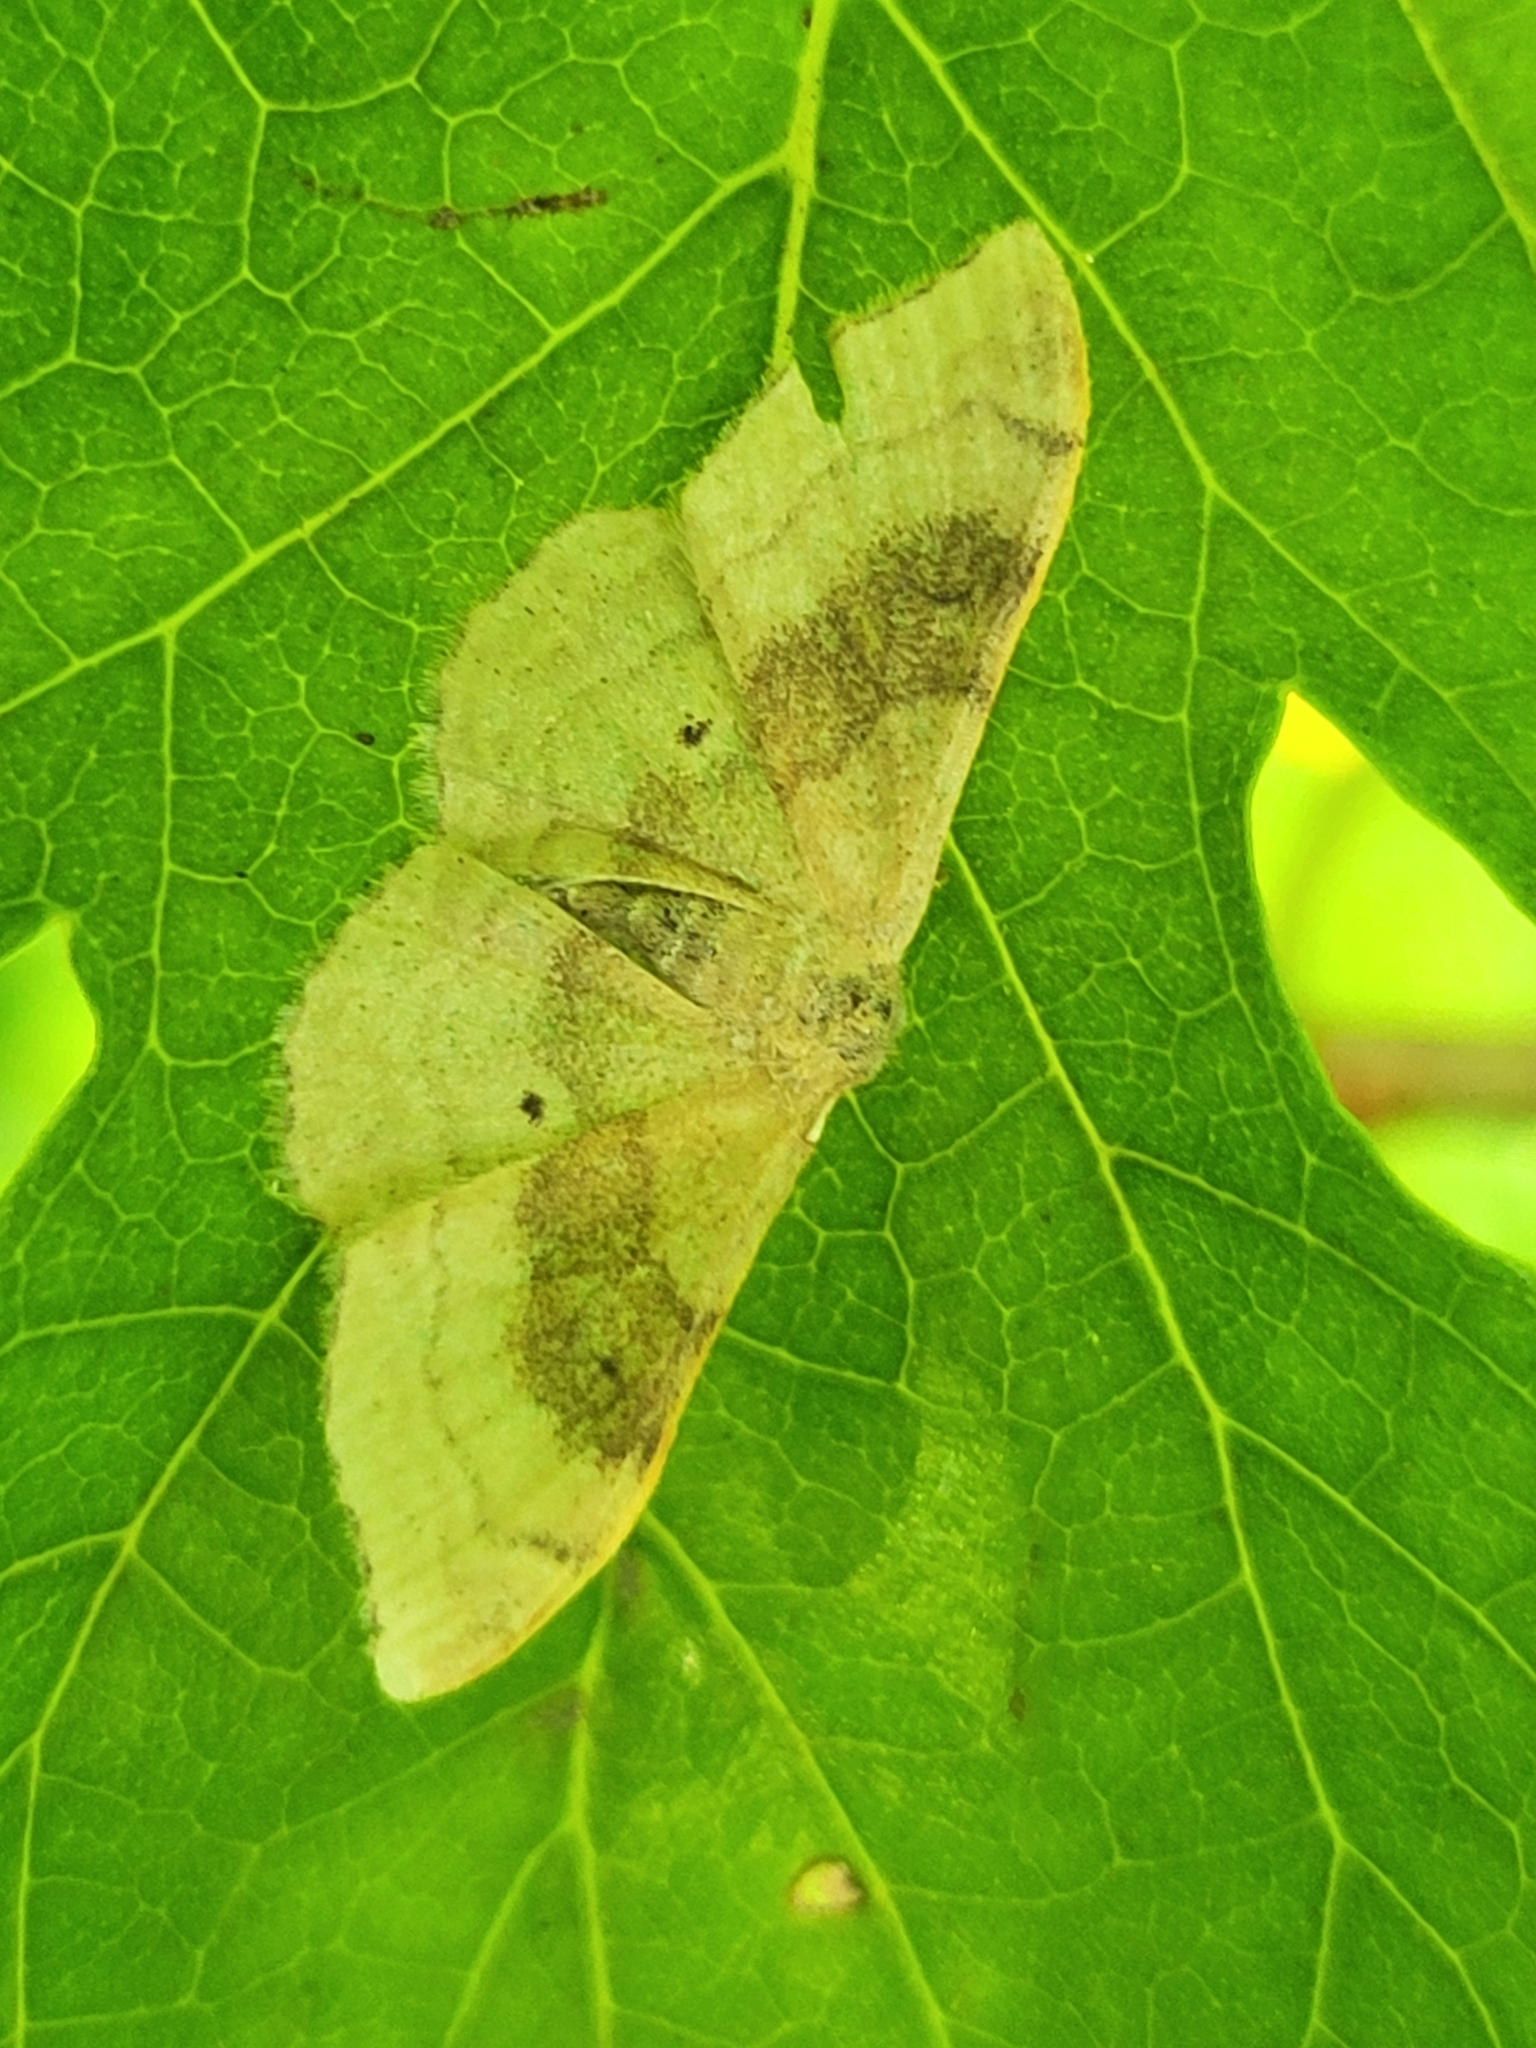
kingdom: Animalia
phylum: Arthropoda
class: Insecta
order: Lepidoptera
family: Geometridae
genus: Idaea
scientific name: Idaea degeneraria
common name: Portland ribbon wave
